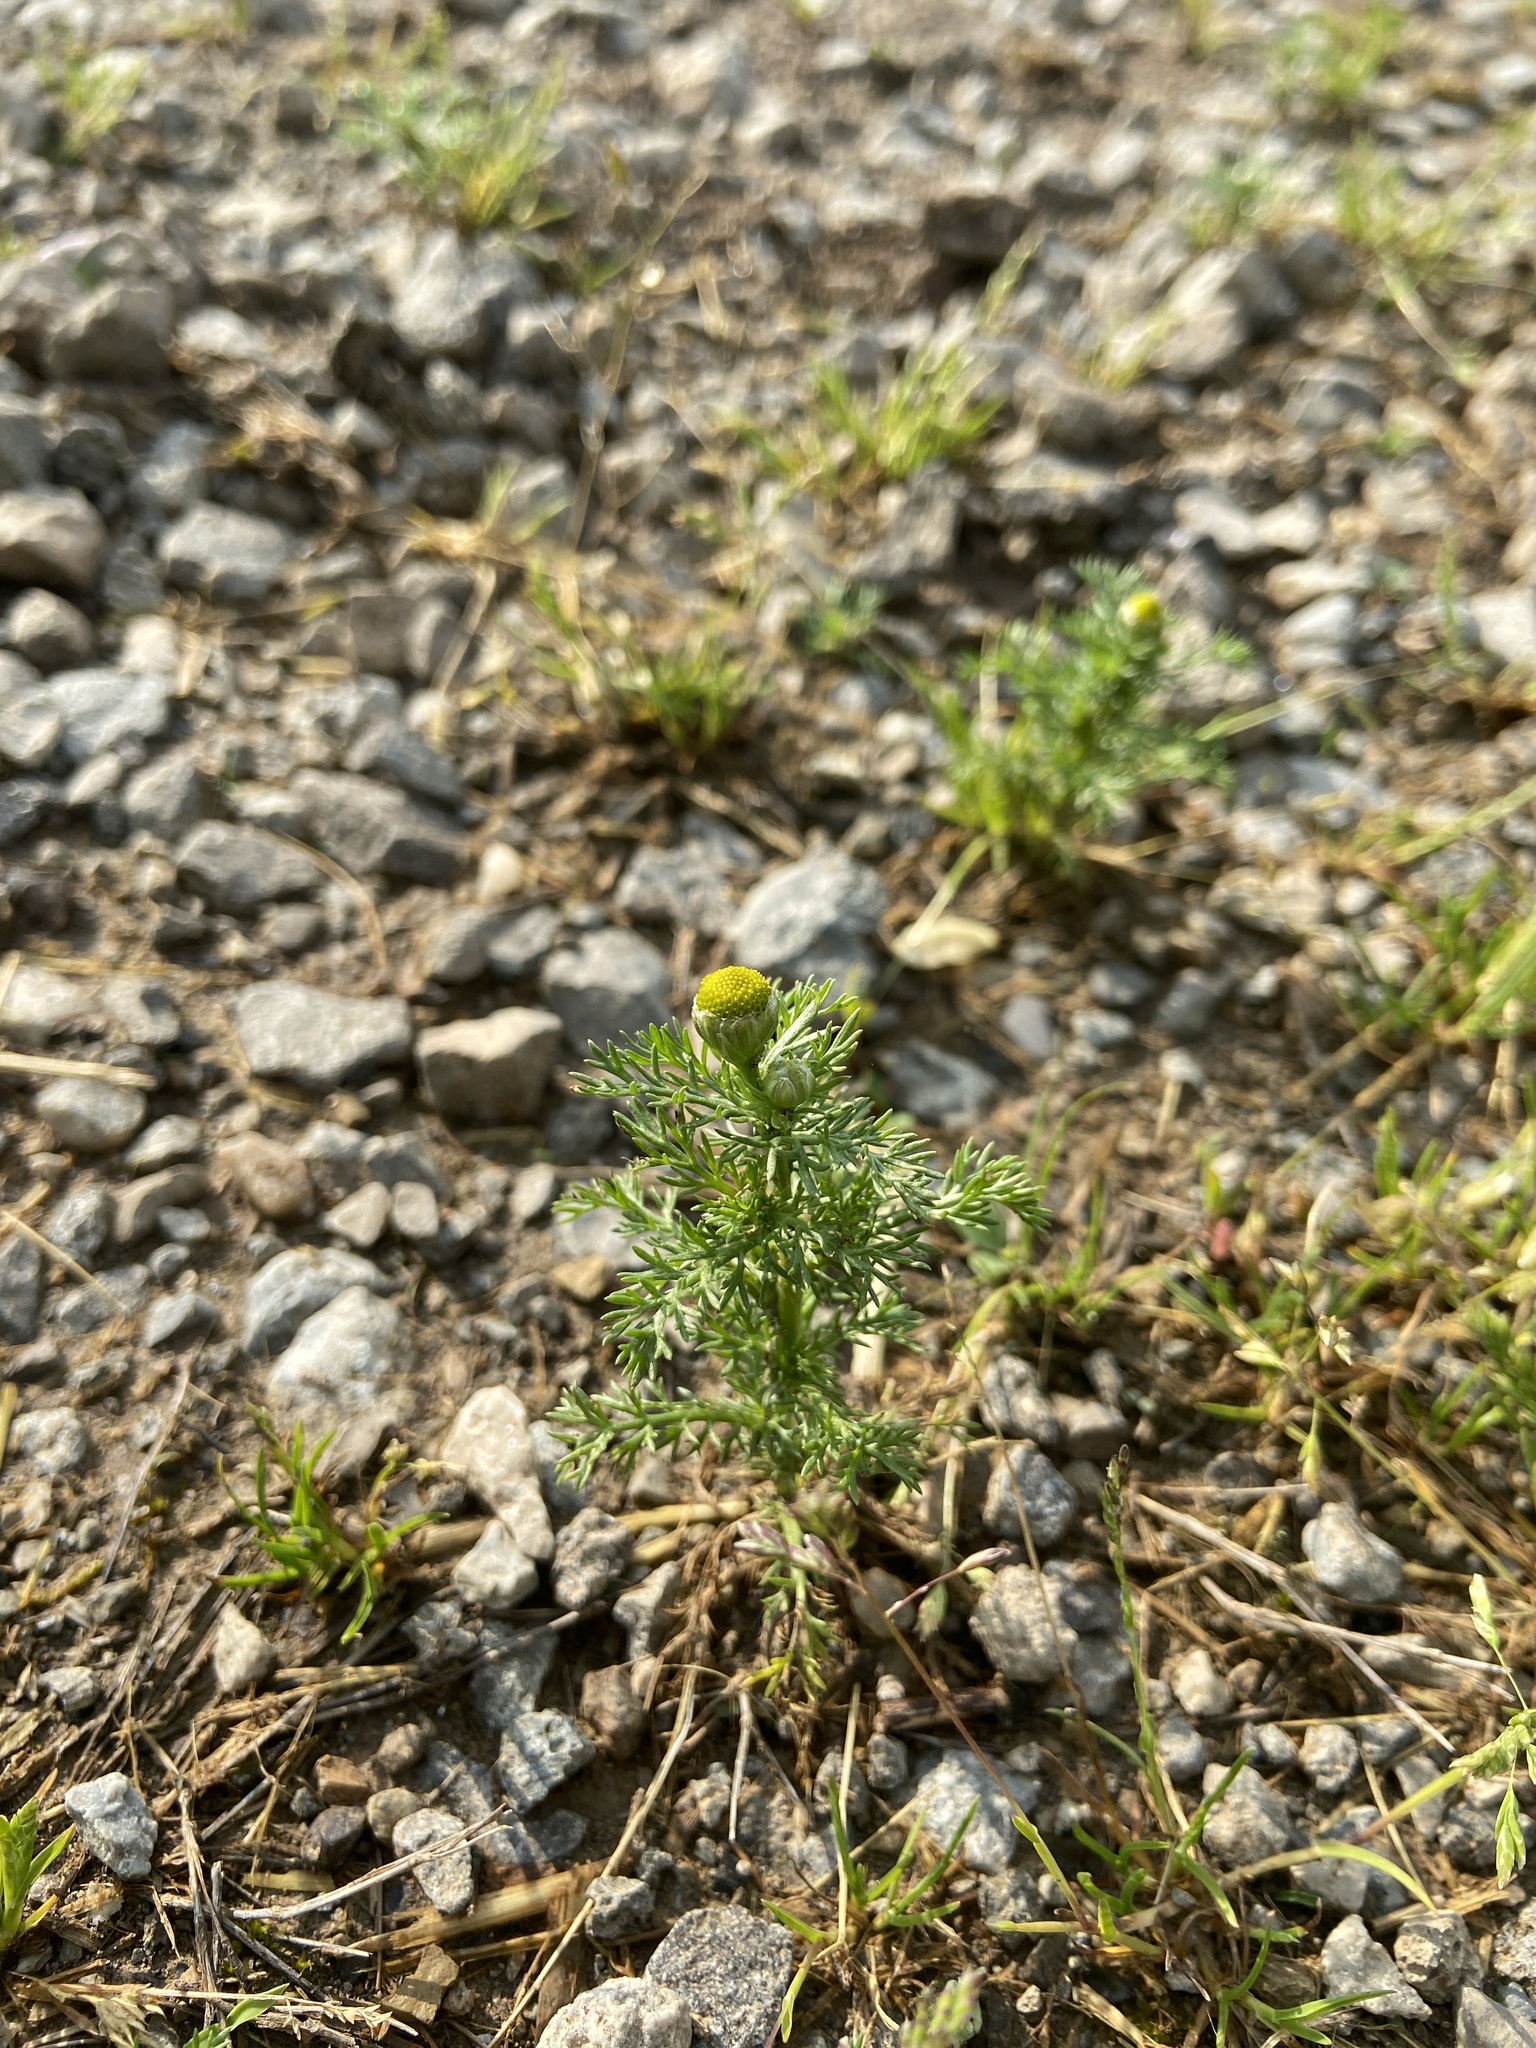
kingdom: Plantae
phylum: Tracheophyta
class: Magnoliopsida
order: Asterales
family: Asteraceae
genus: Matricaria
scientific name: Matricaria discoidea
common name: Disc mayweed
